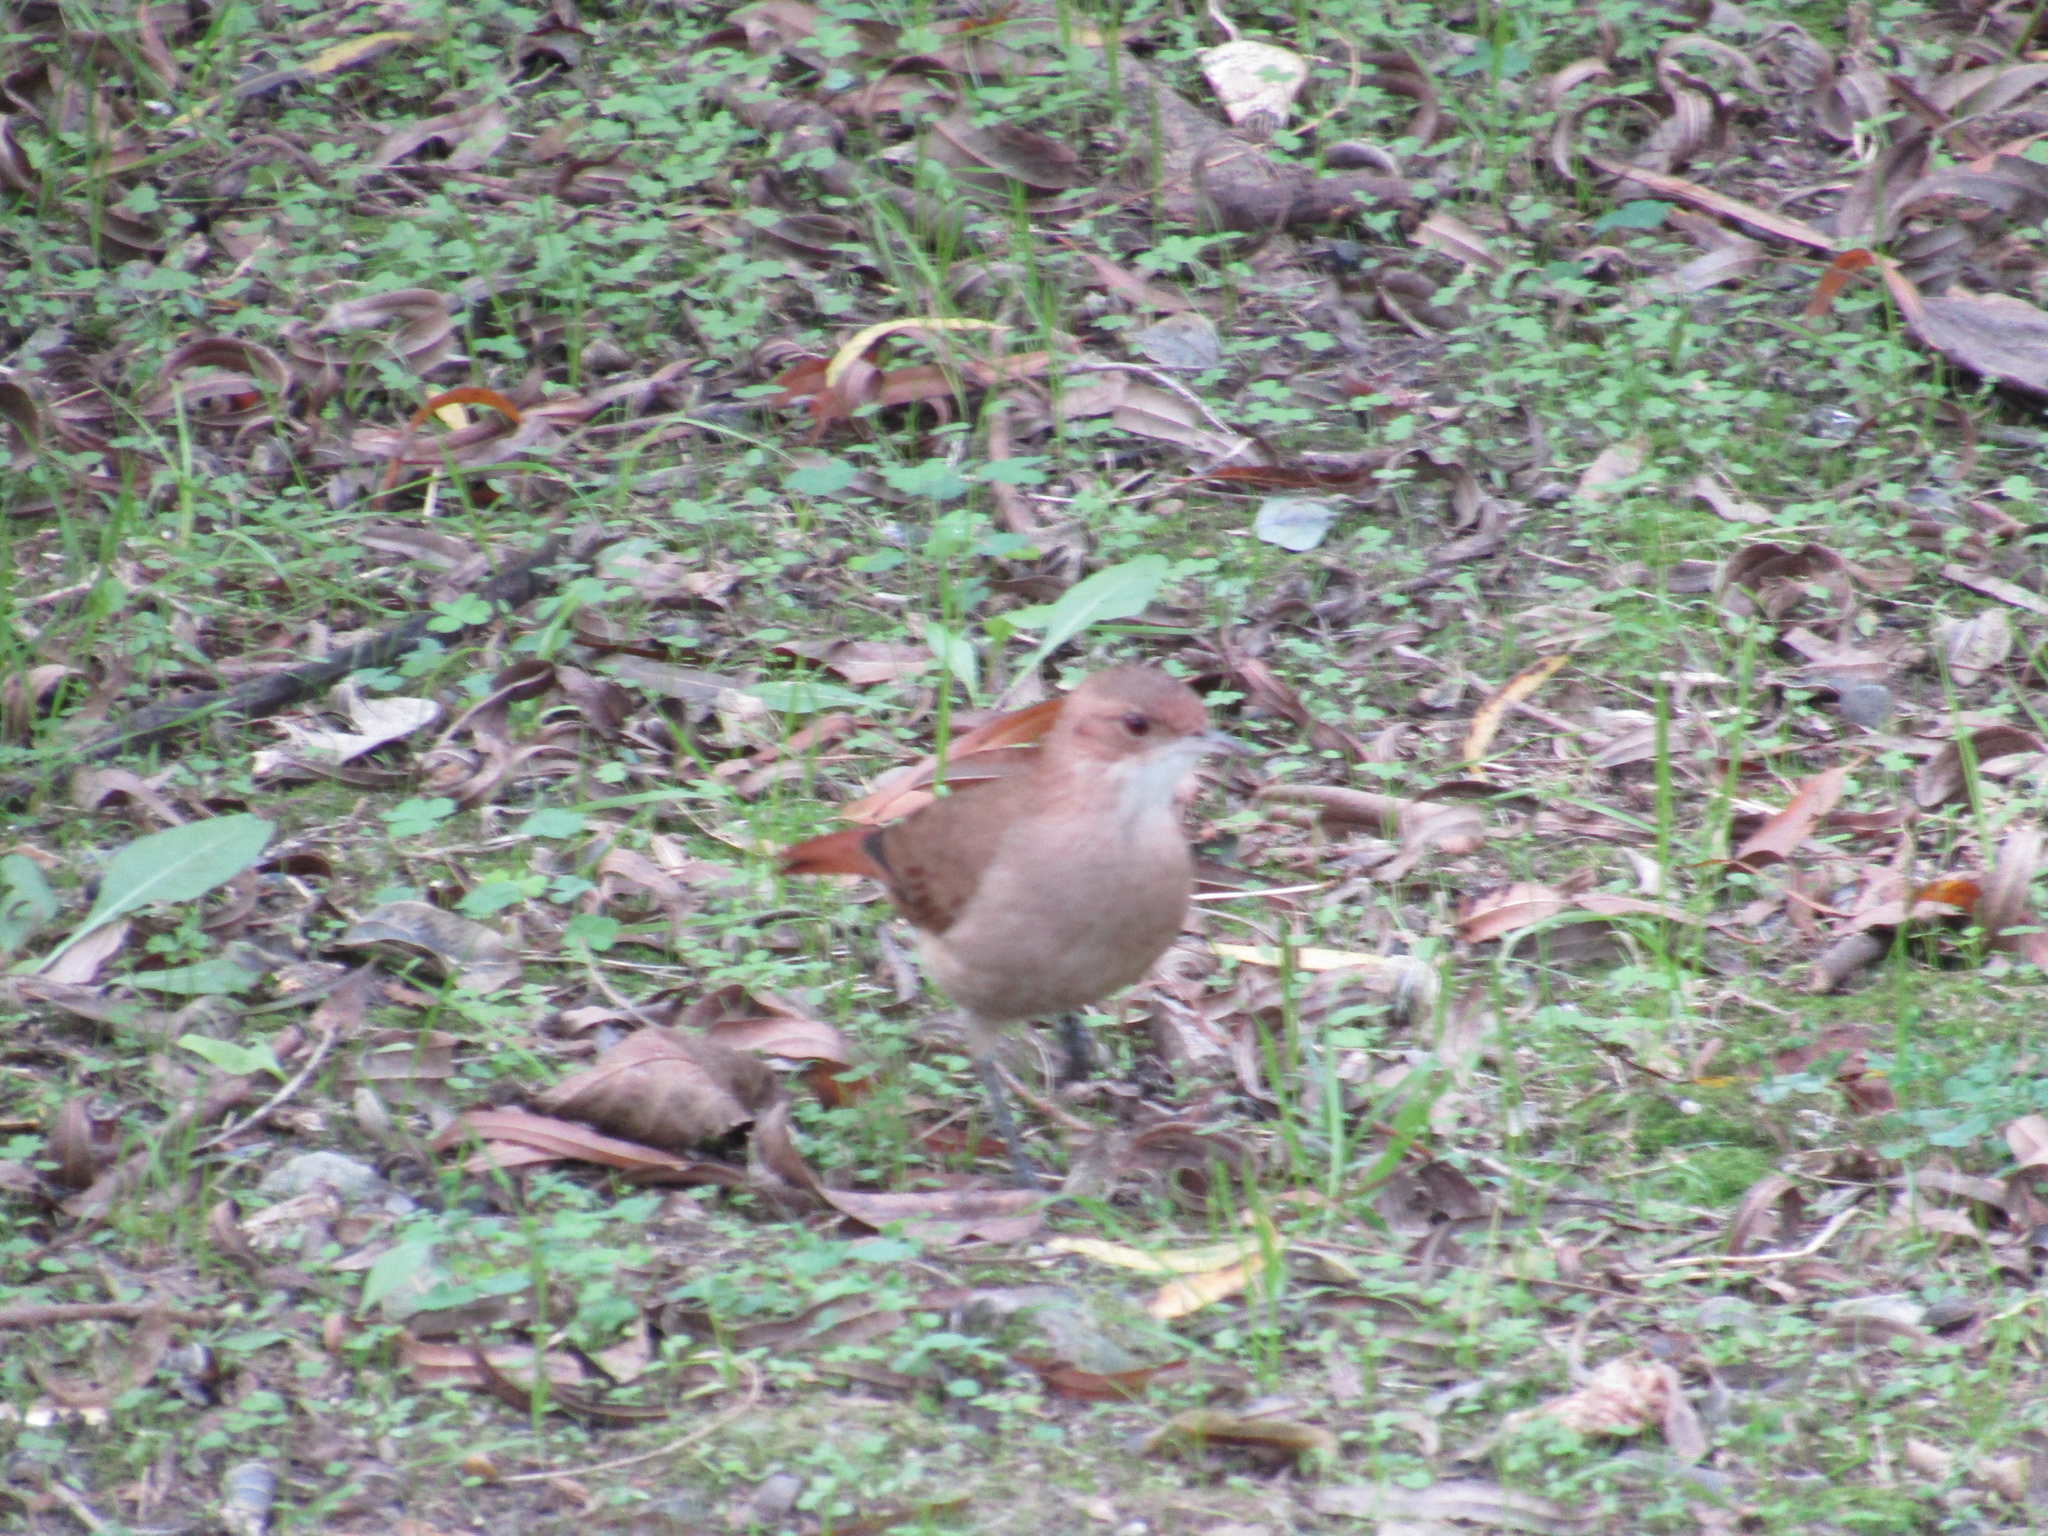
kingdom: Animalia
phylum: Chordata
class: Aves
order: Passeriformes
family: Furnariidae
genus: Furnarius
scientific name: Furnarius rufus
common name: Rufous hornero
